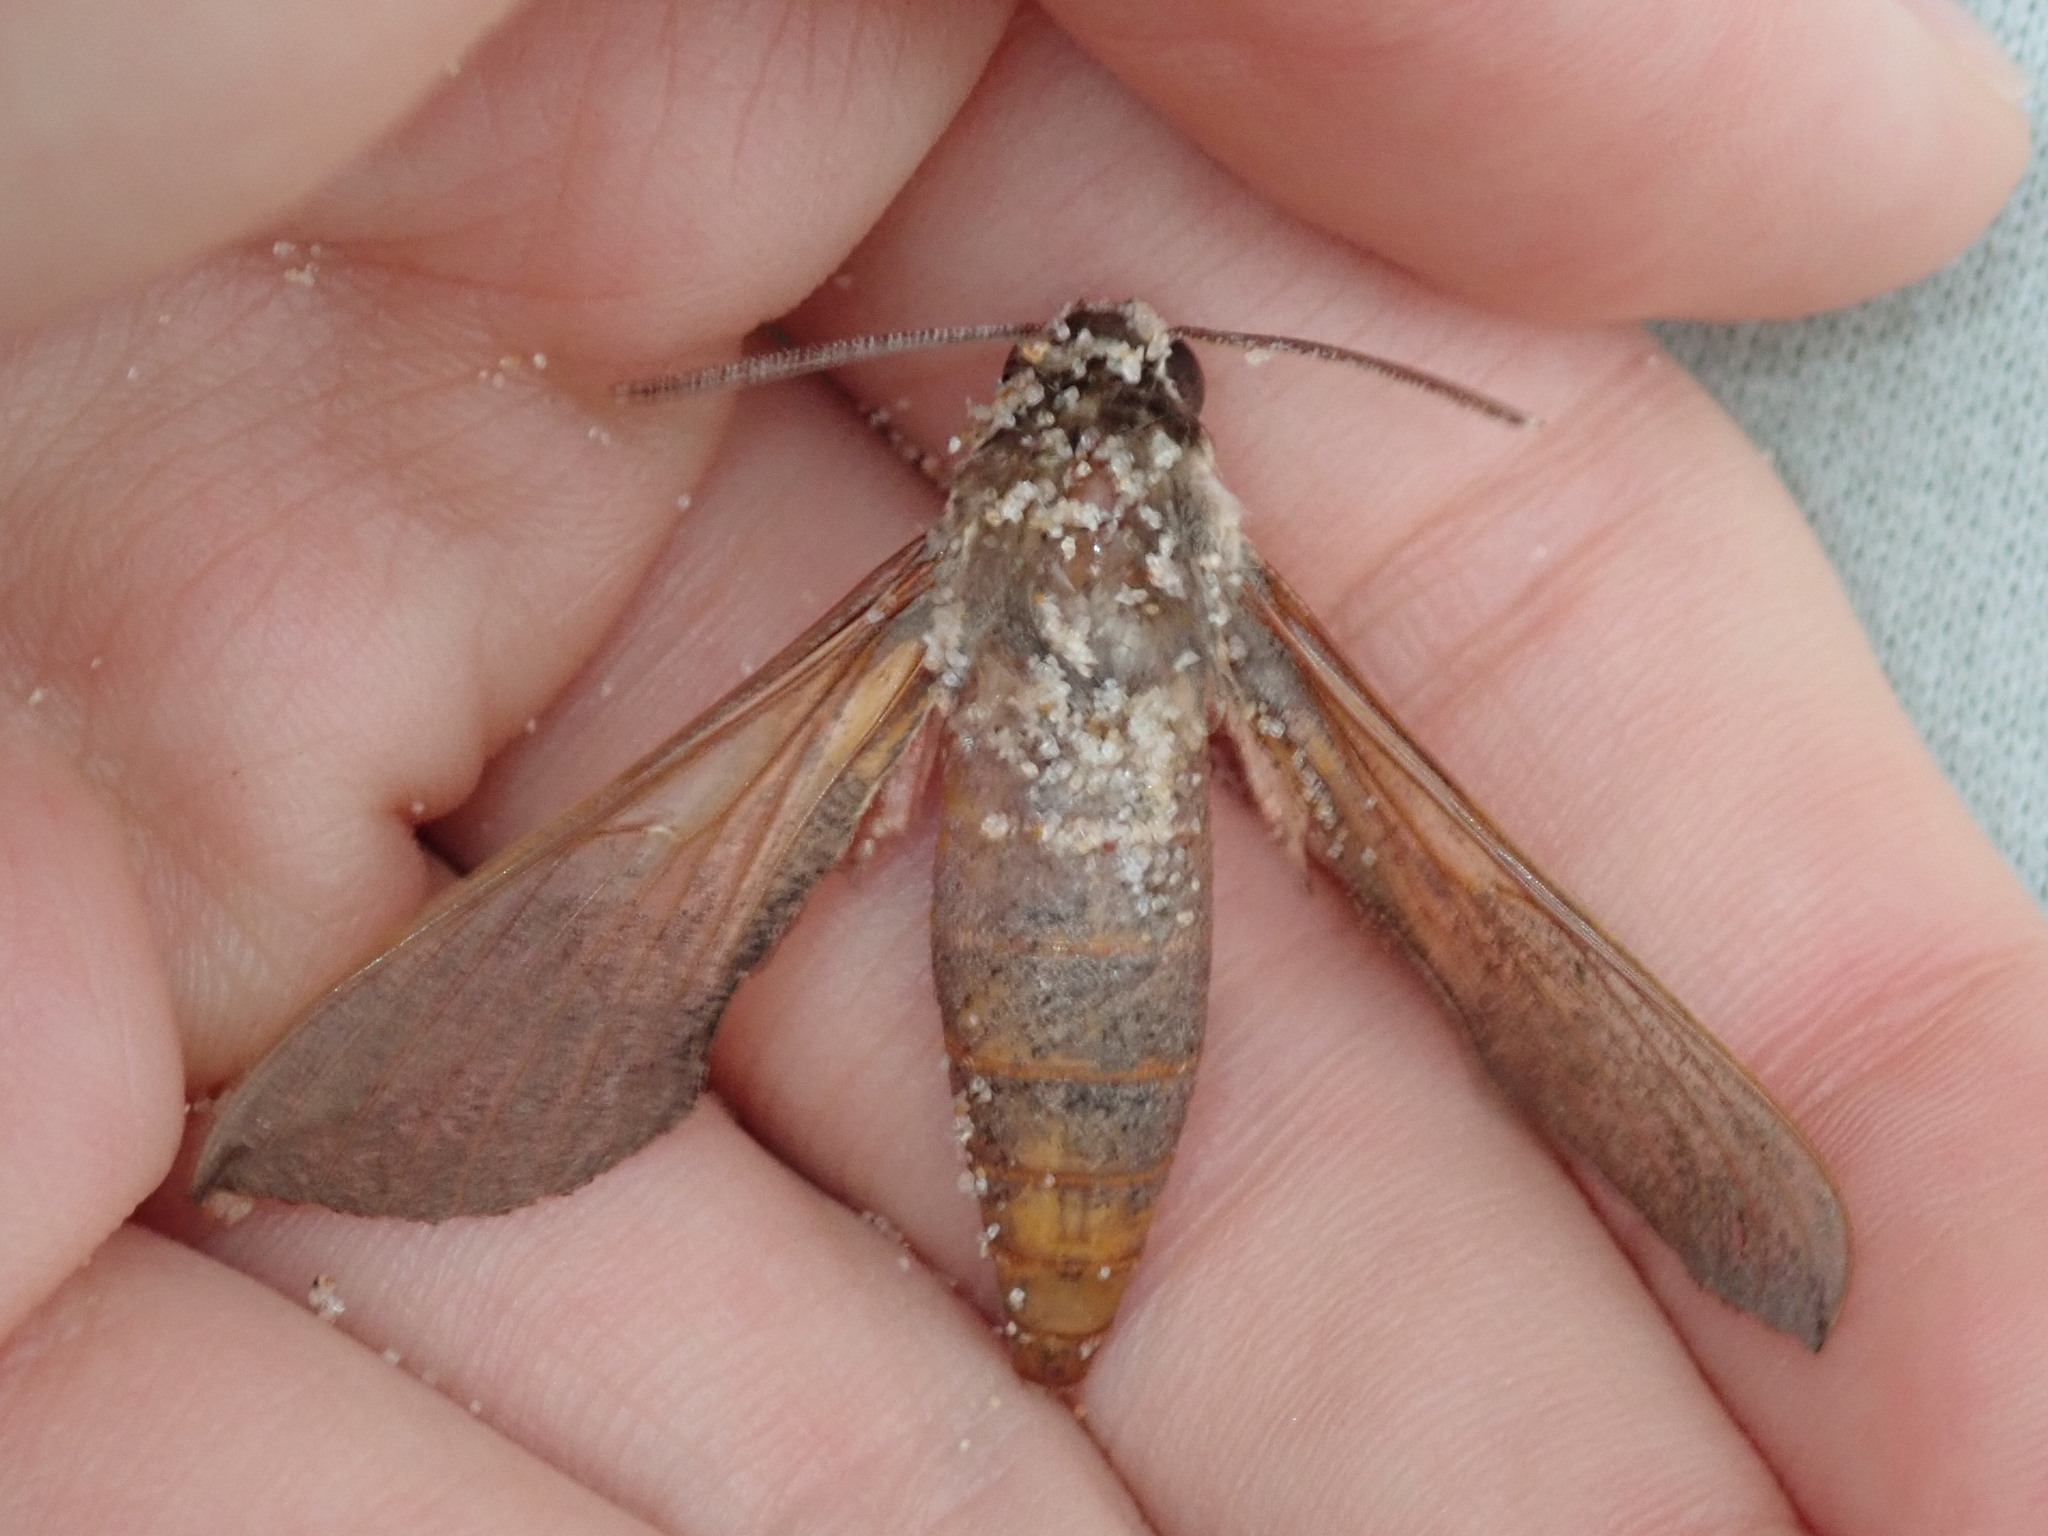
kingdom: Animalia
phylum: Arthropoda
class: Insecta
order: Lepidoptera
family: Sphingidae
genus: Hippotion
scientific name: Hippotion scrofa
